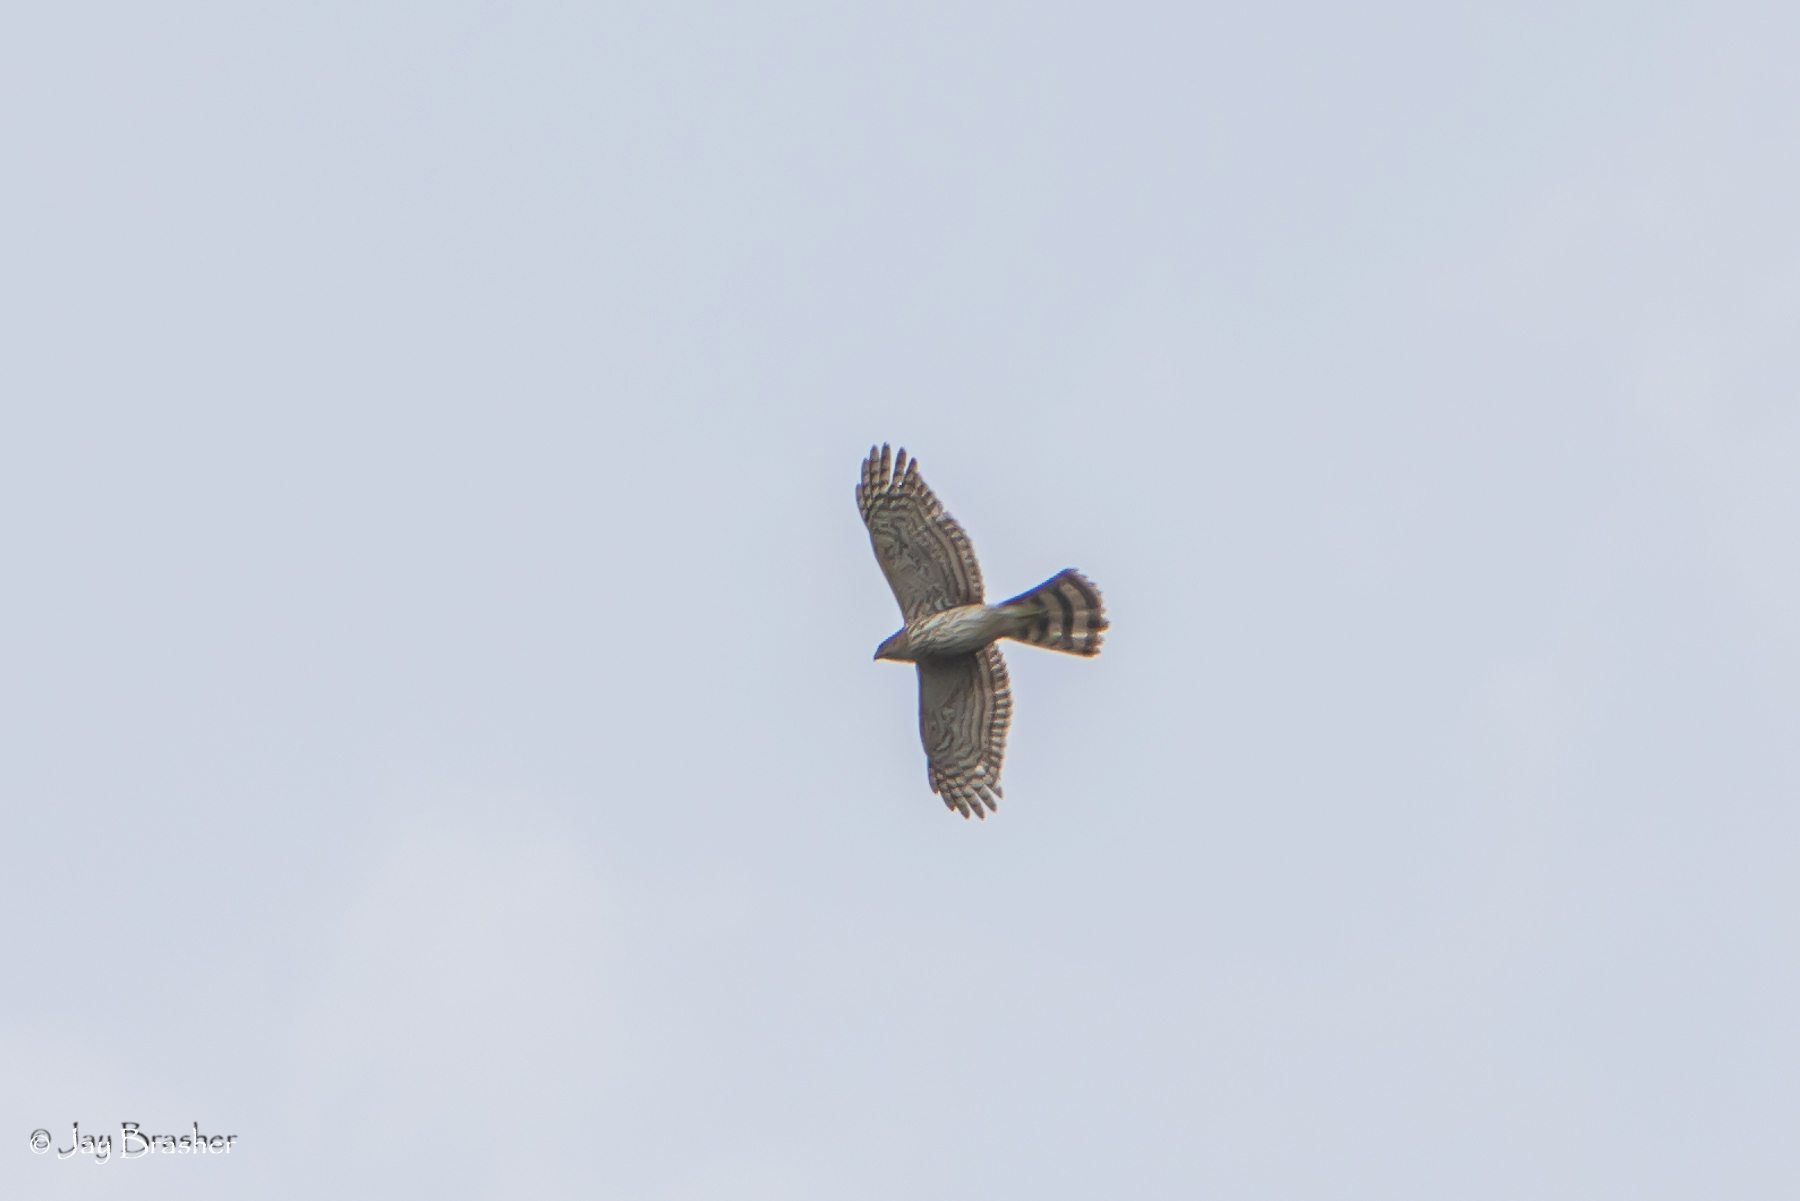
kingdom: Animalia
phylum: Chordata
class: Aves
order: Accipitriformes
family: Accipitridae
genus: Accipiter
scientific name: Accipiter cooperii
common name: Cooper's hawk
